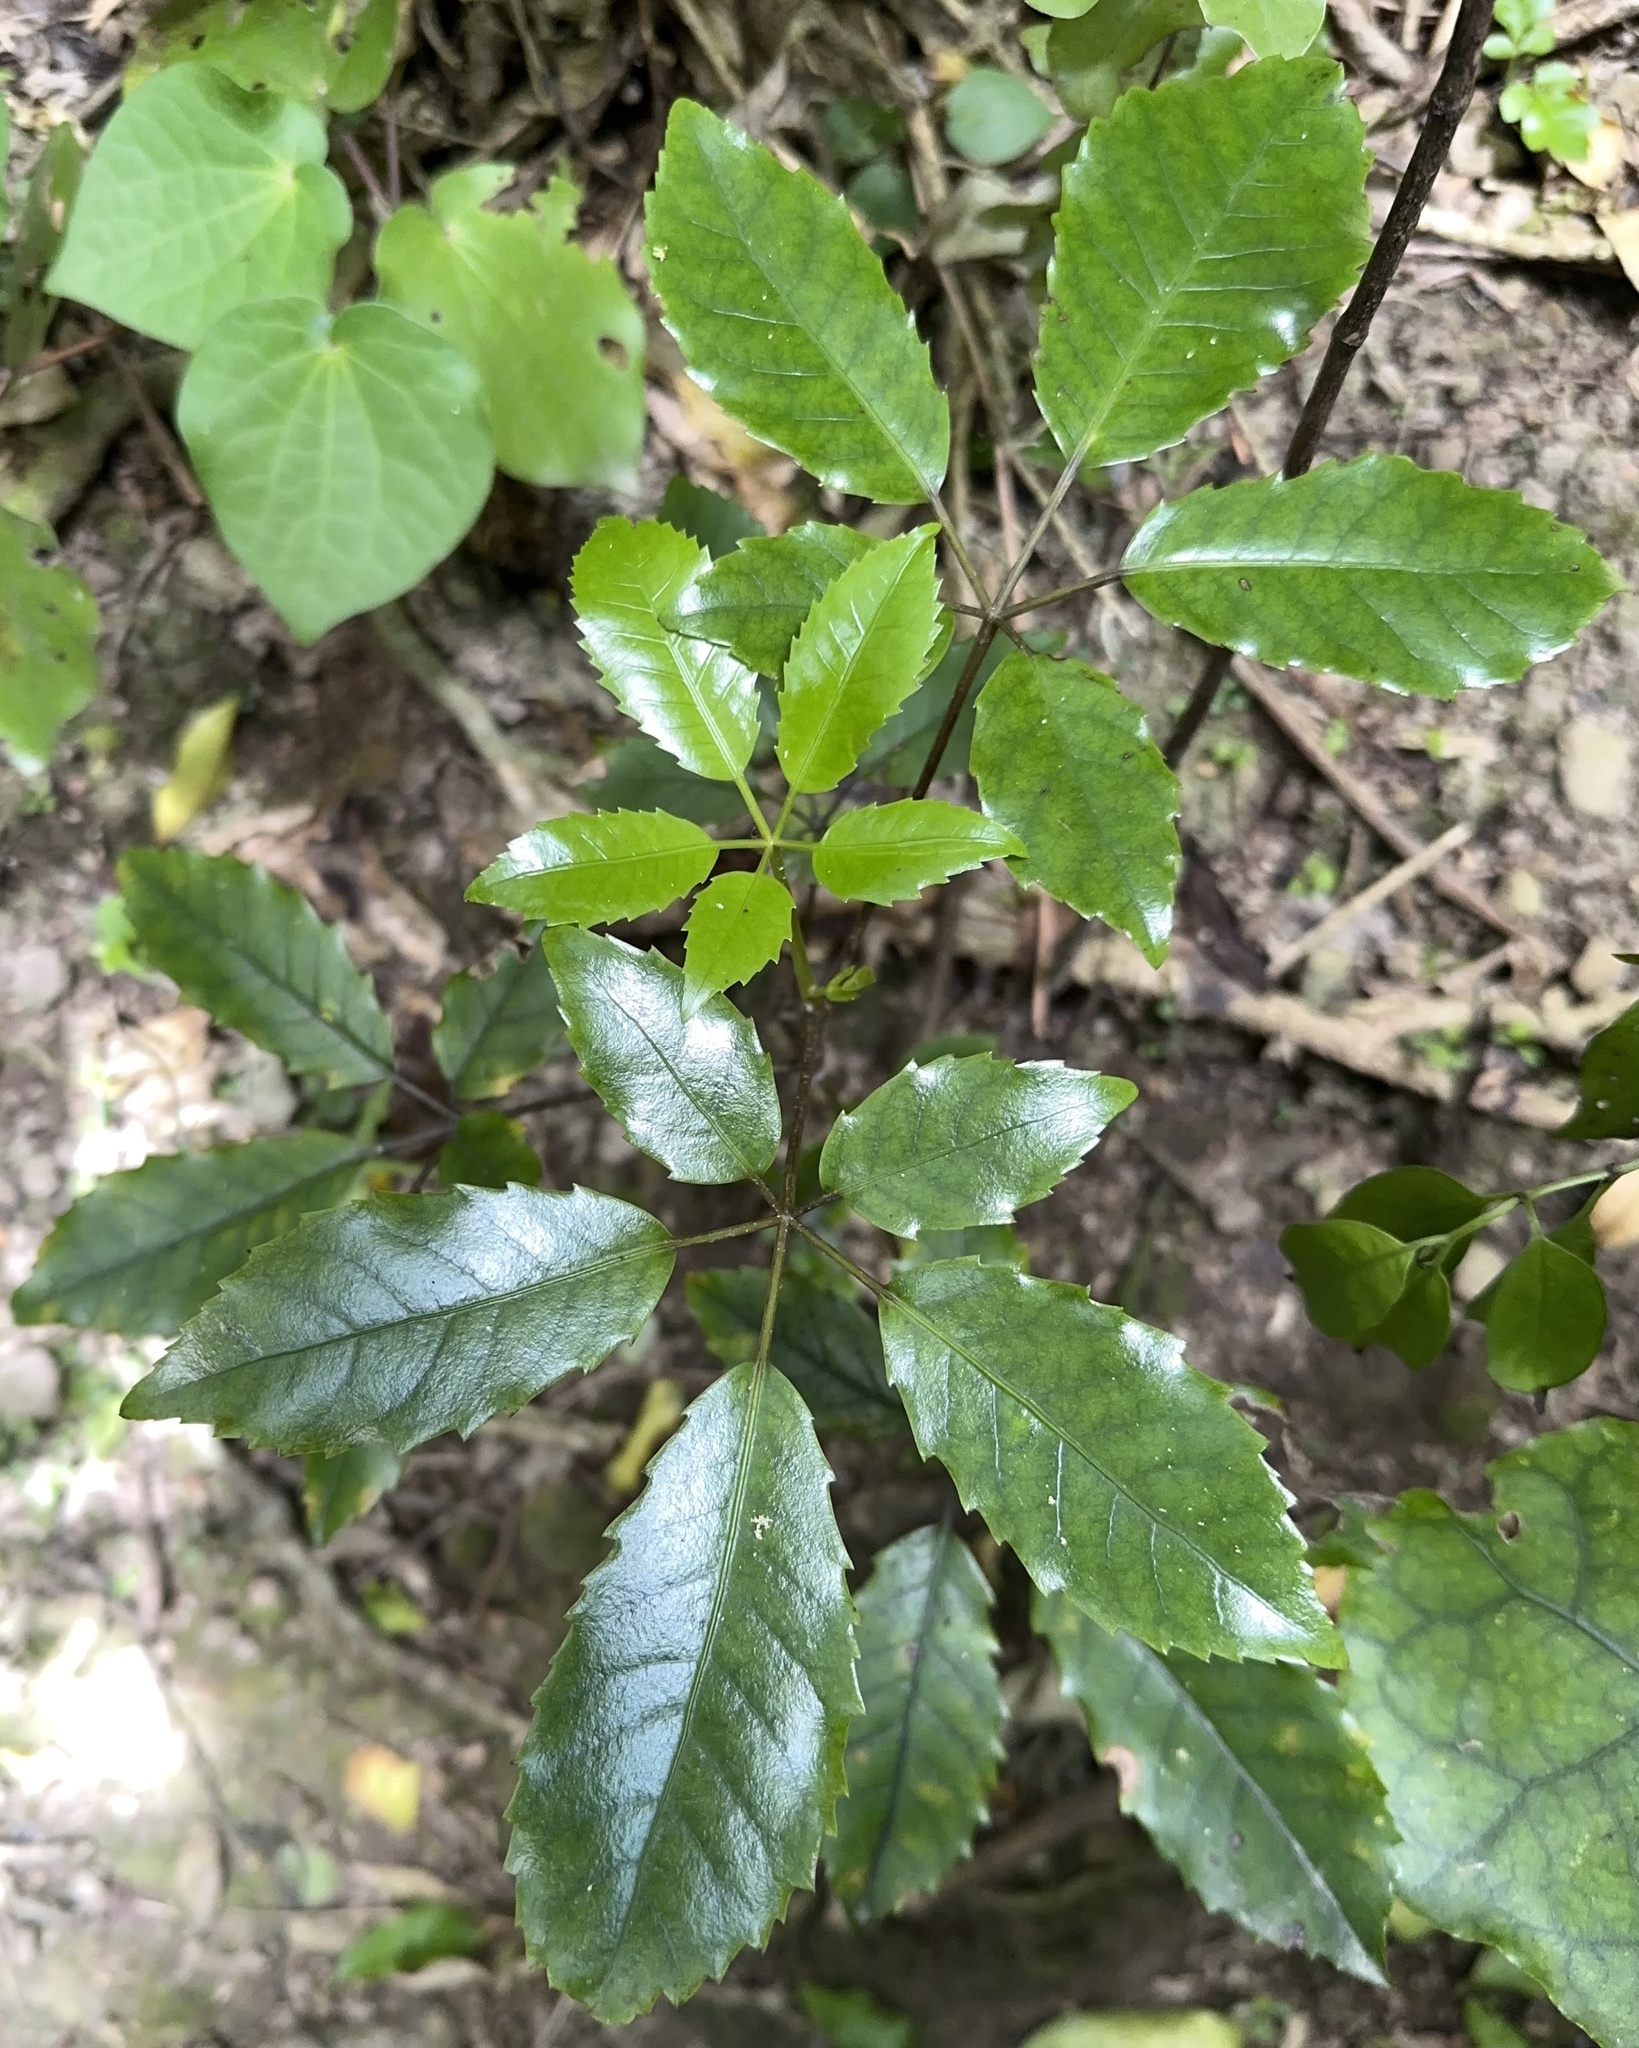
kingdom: Plantae
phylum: Tracheophyta
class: Magnoliopsida
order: Apiales
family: Araliaceae
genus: Neopanax
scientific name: Neopanax arboreus
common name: Five-fingers
